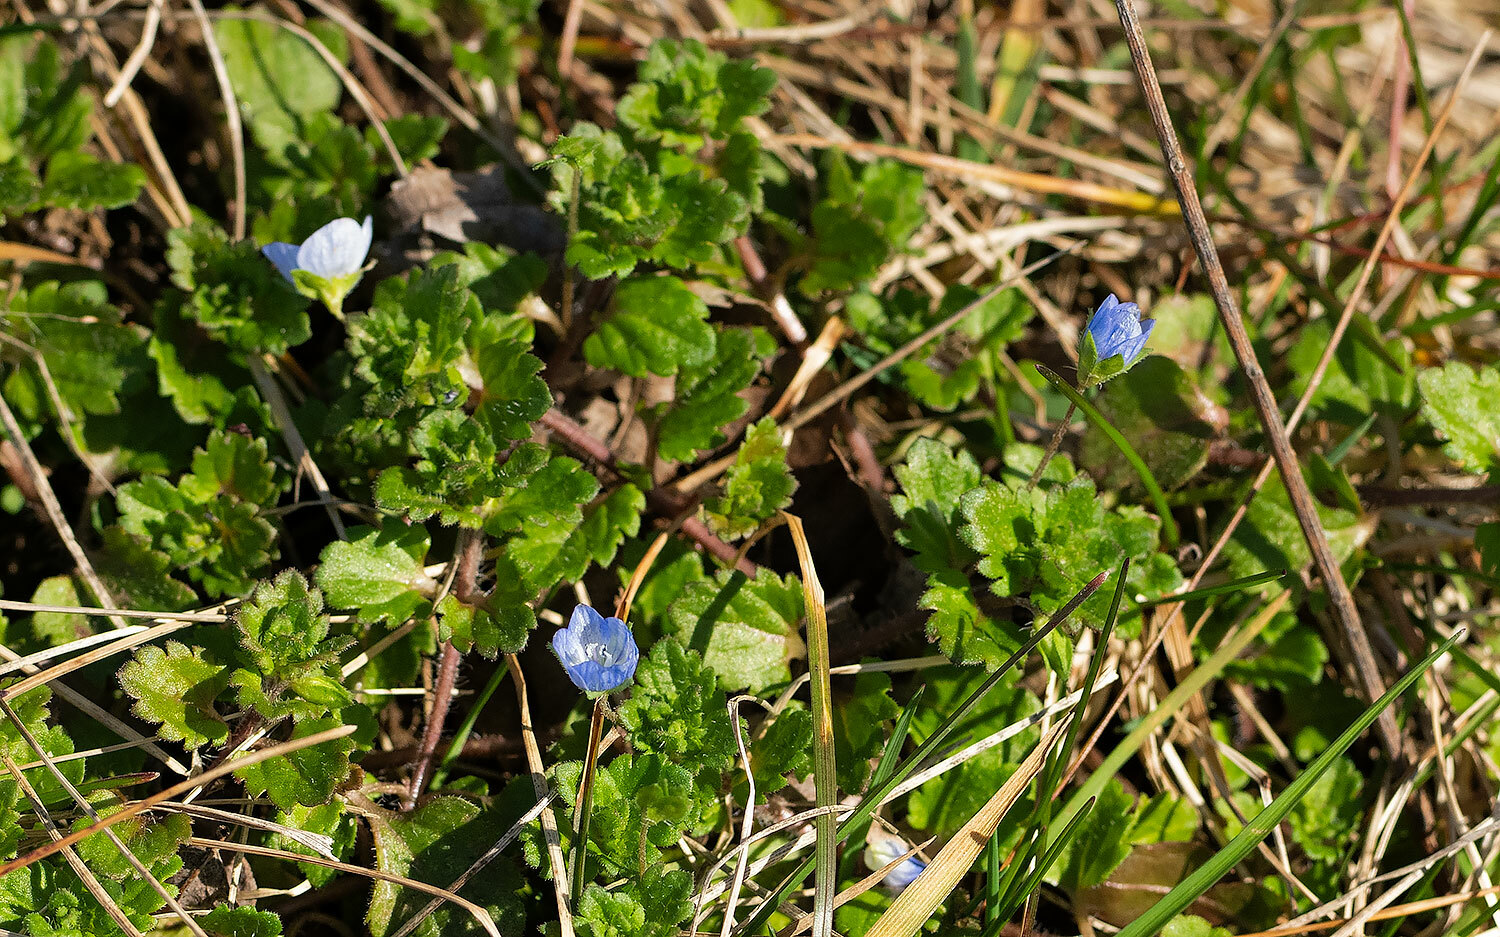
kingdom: Plantae
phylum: Tracheophyta
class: Magnoliopsida
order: Lamiales
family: Plantaginaceae
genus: Veronica
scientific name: Veronica persica
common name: Common field-speedwell
